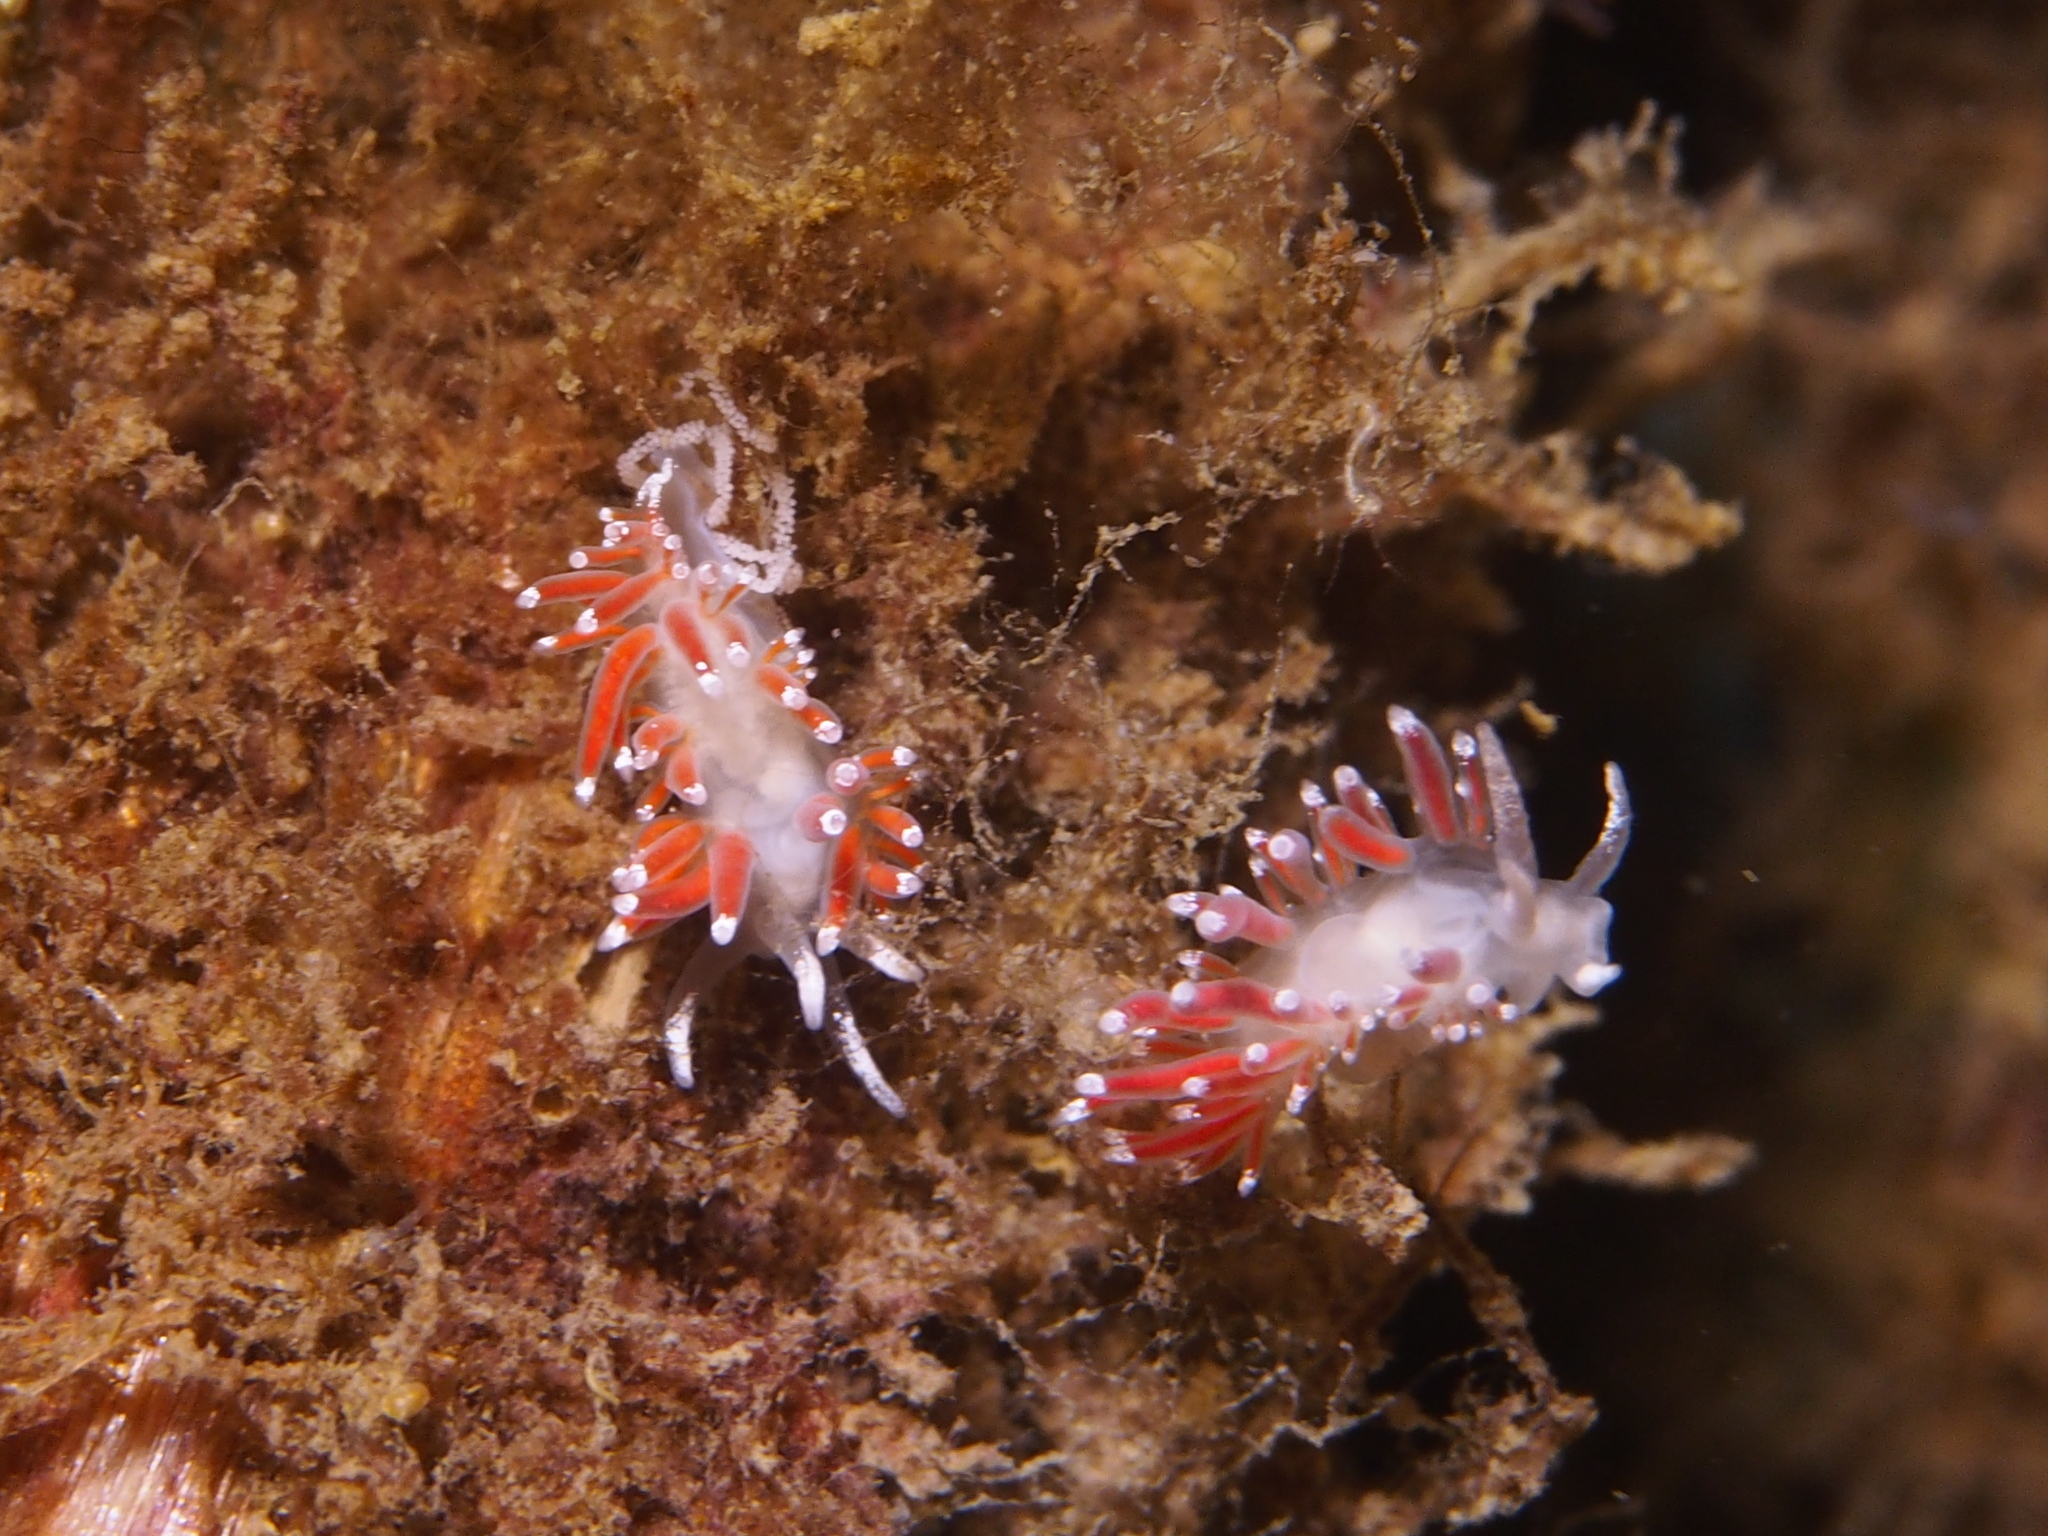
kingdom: Animalia
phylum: Mollusca
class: Gastropoda
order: Nudibranchia
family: Coryphellidae
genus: Coryphella
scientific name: Coryphella gracilis
